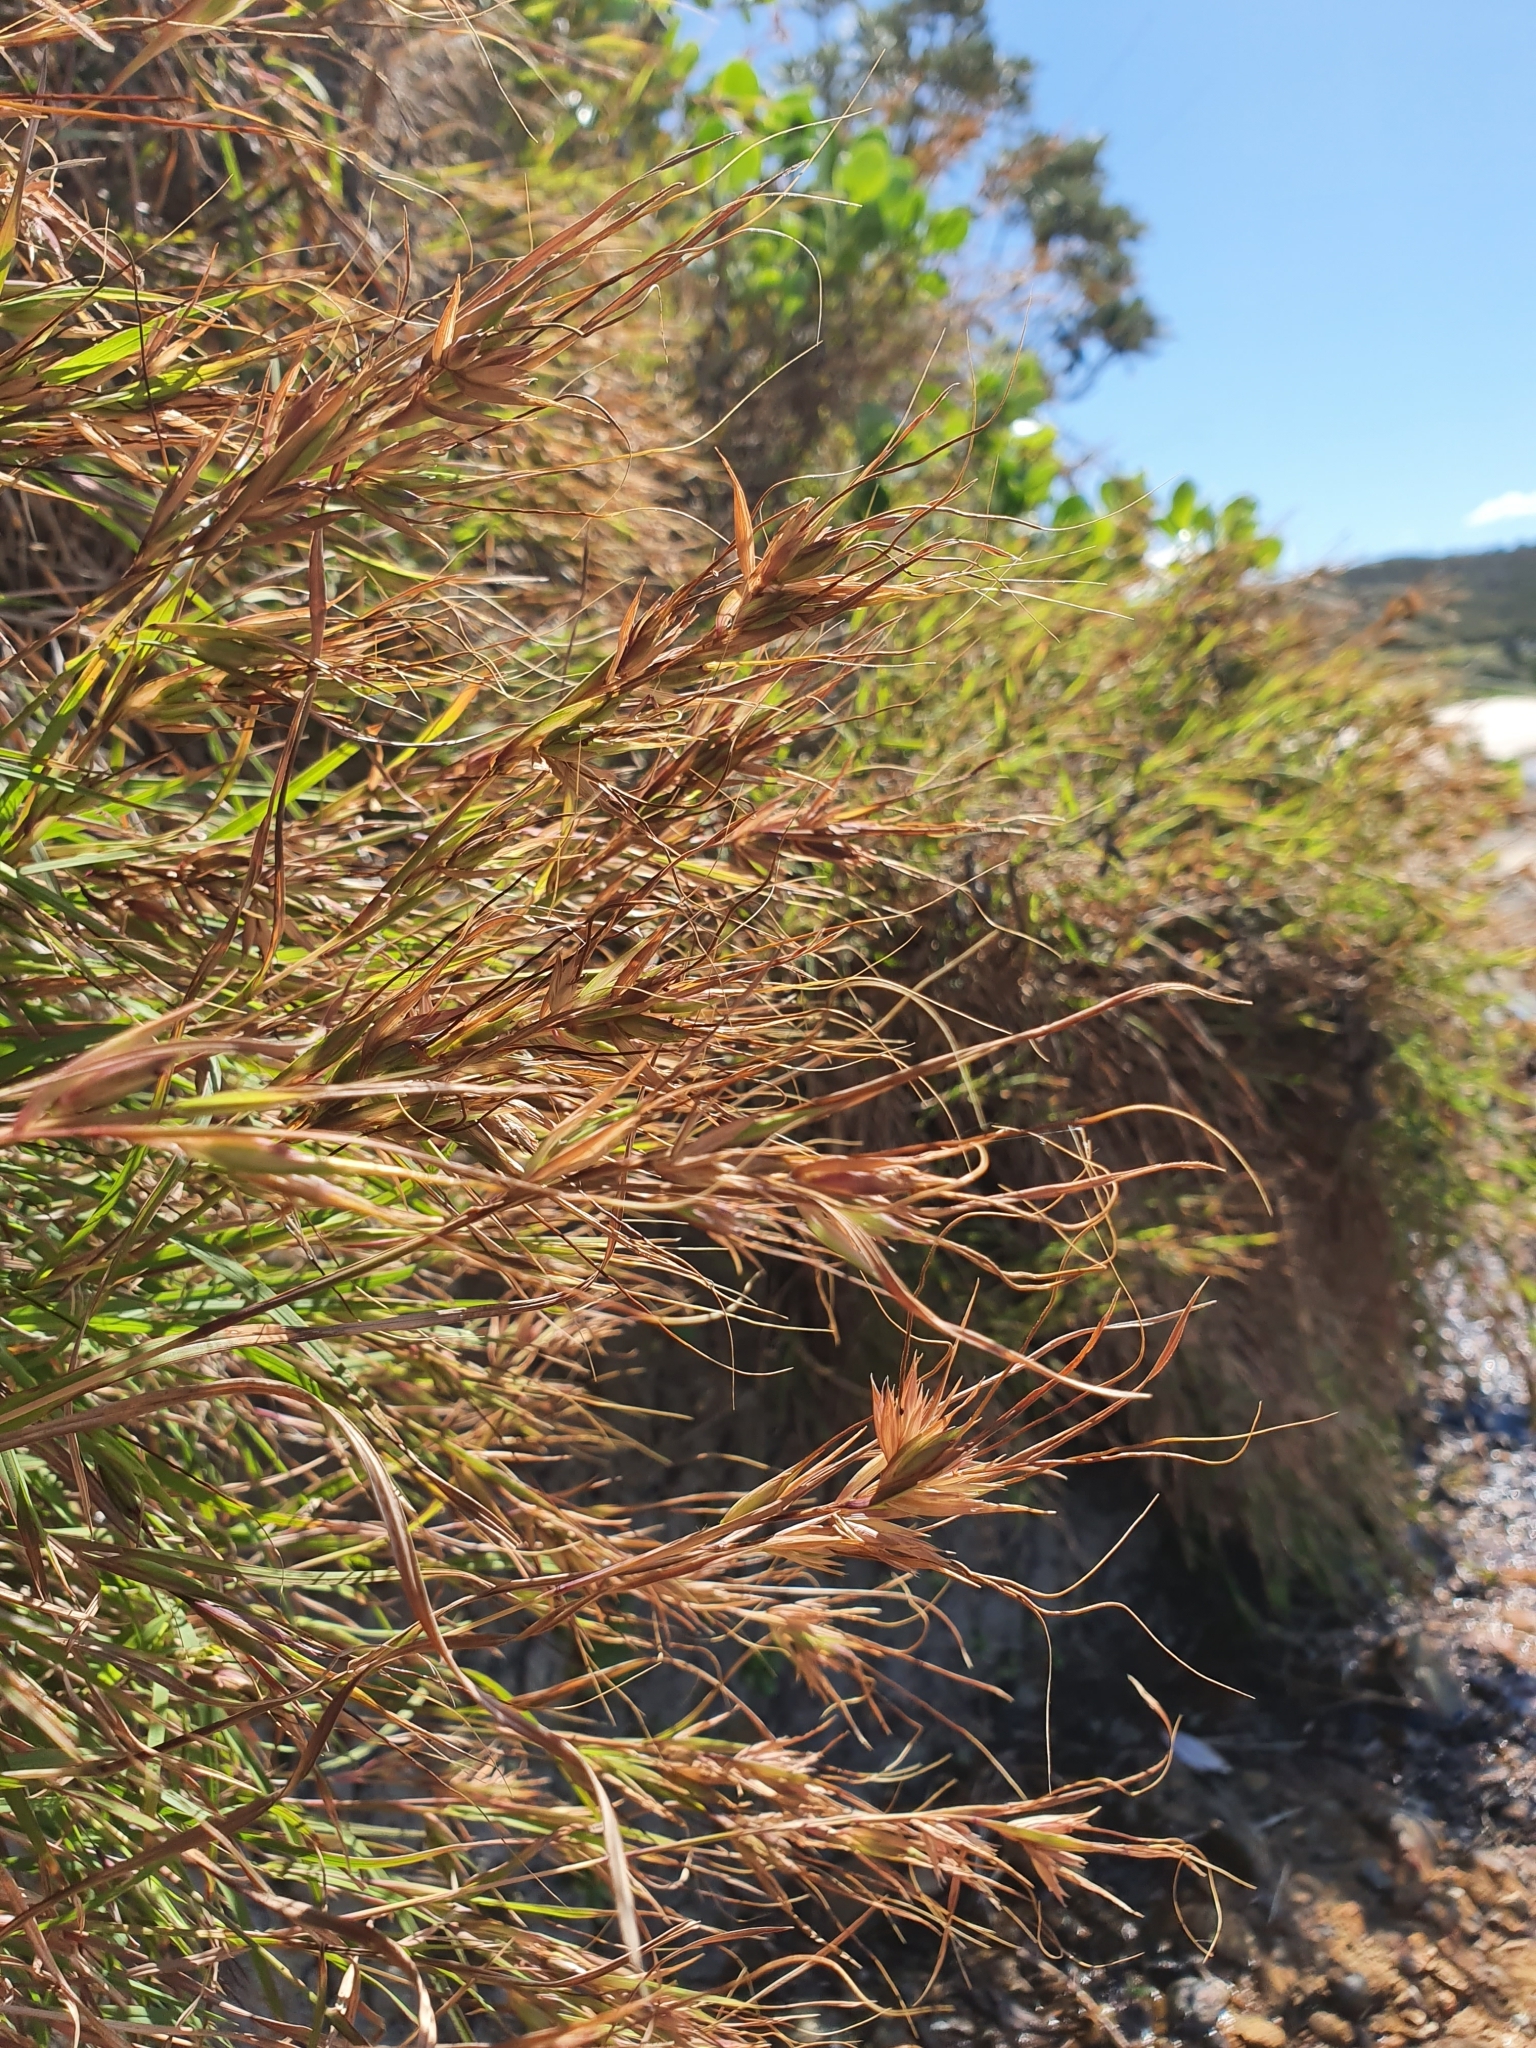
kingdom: Plantae
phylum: Tracheophyta
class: Liliopsida
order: Poales
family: Poaceae
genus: Themeda
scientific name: Themeda triandra
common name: Kangaroo grass
